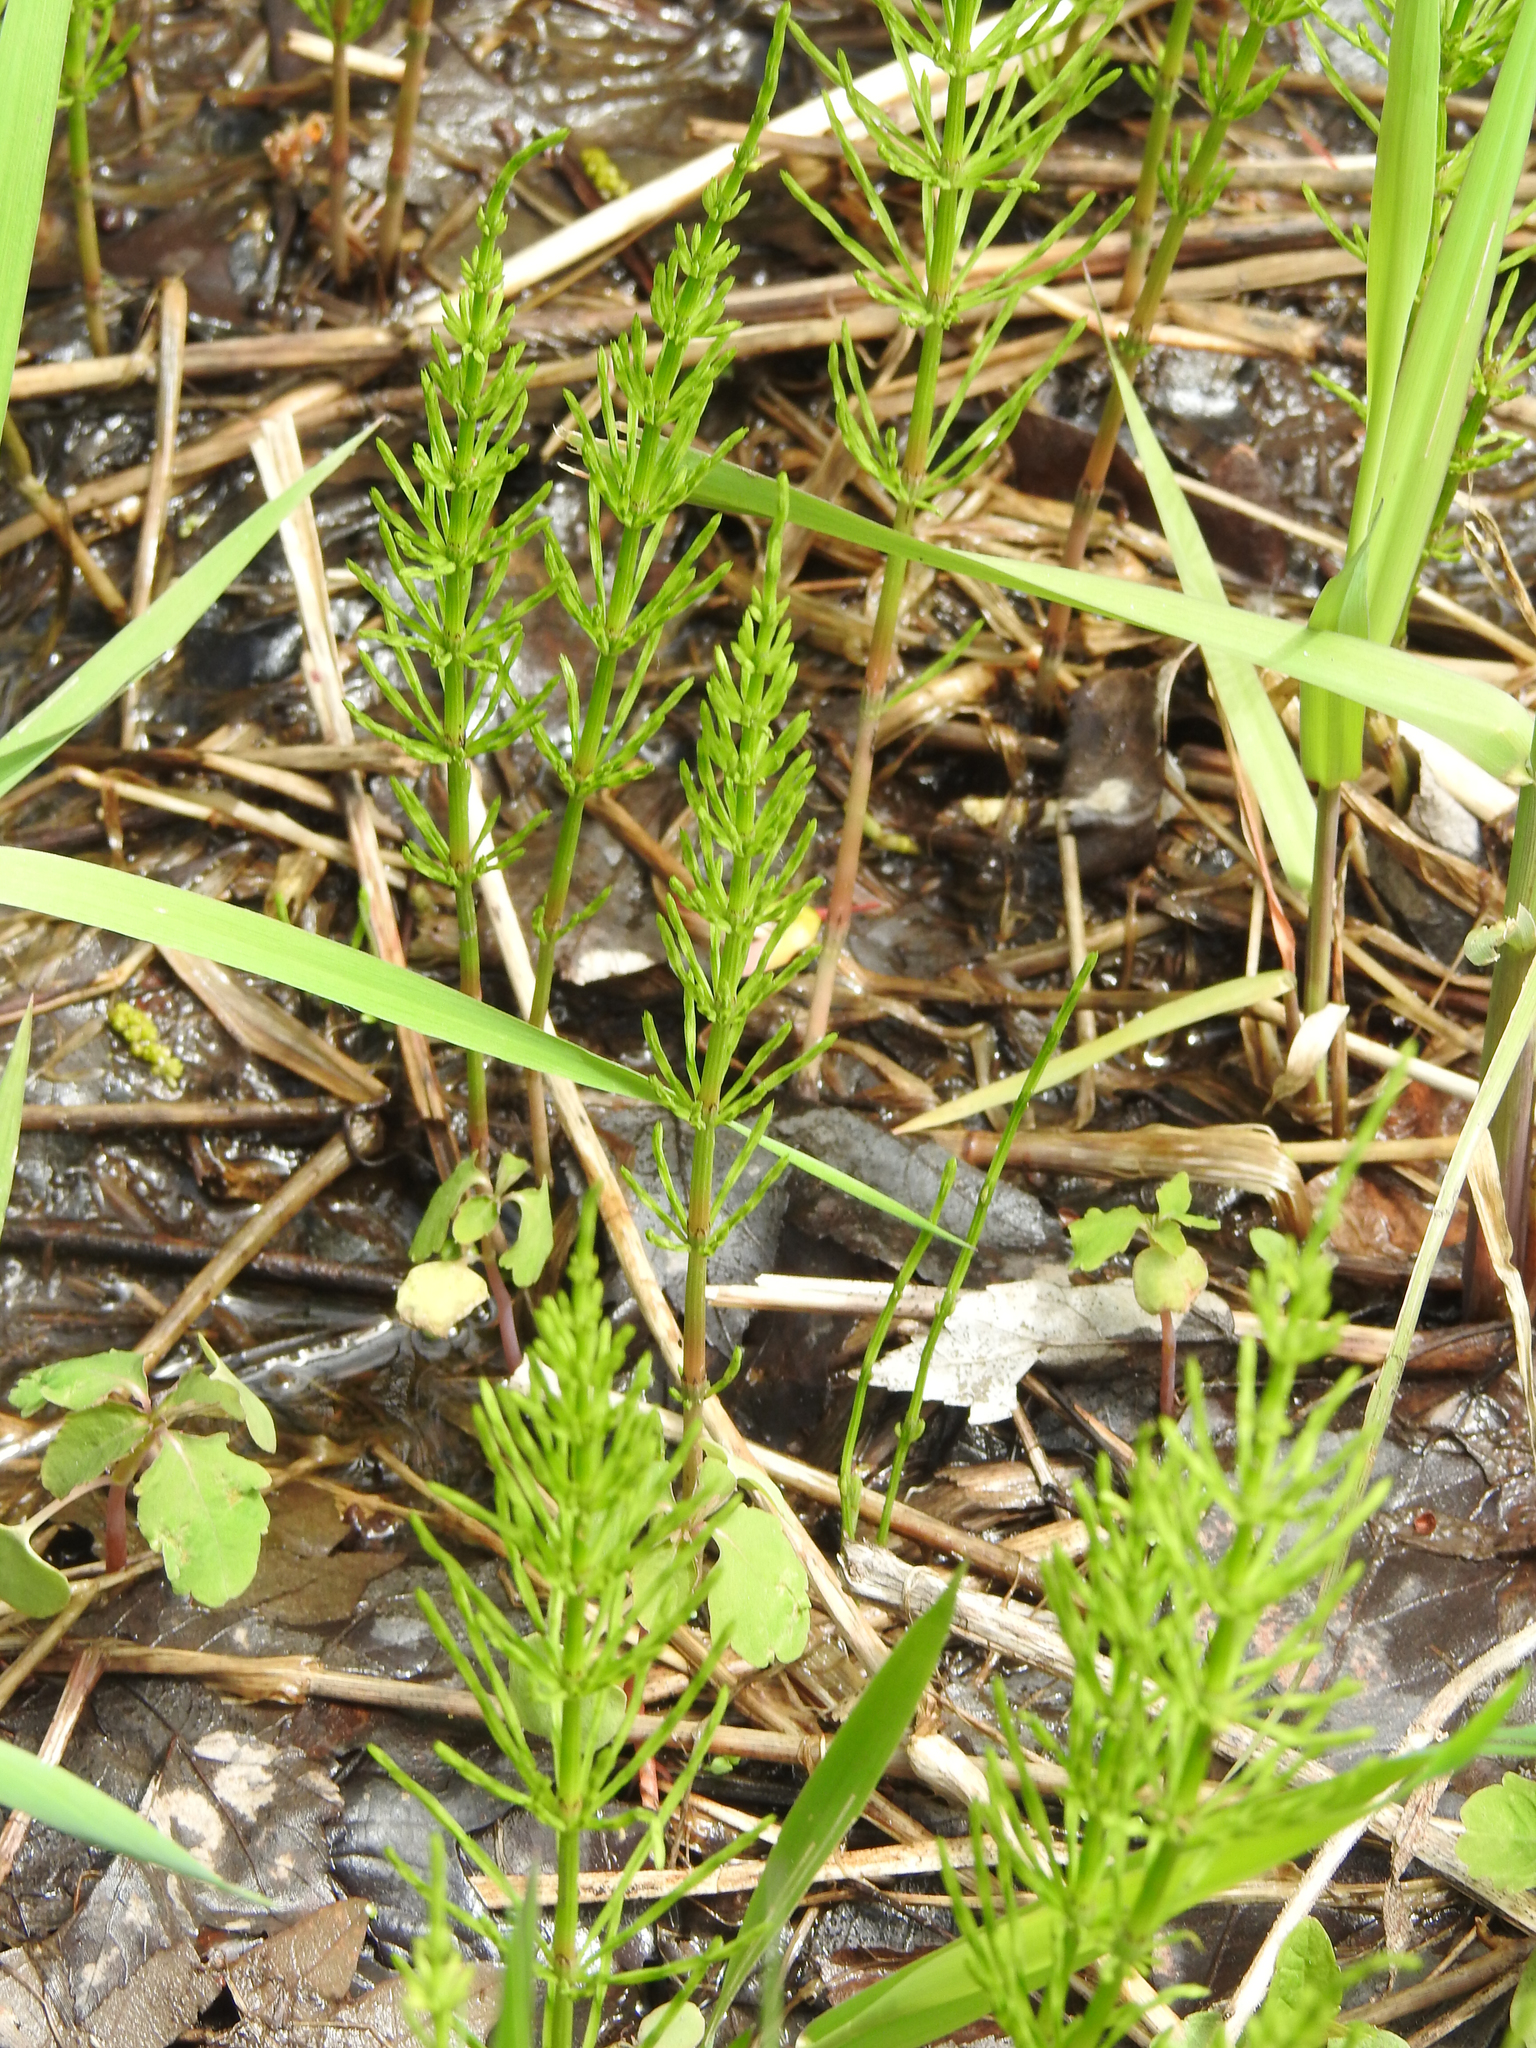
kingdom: Plantae
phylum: Tracheophyta
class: Polypodiopsida
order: Equisetales
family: Equisetaceae
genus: Equisetum
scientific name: Equisetum arvense
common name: Field horsetail
